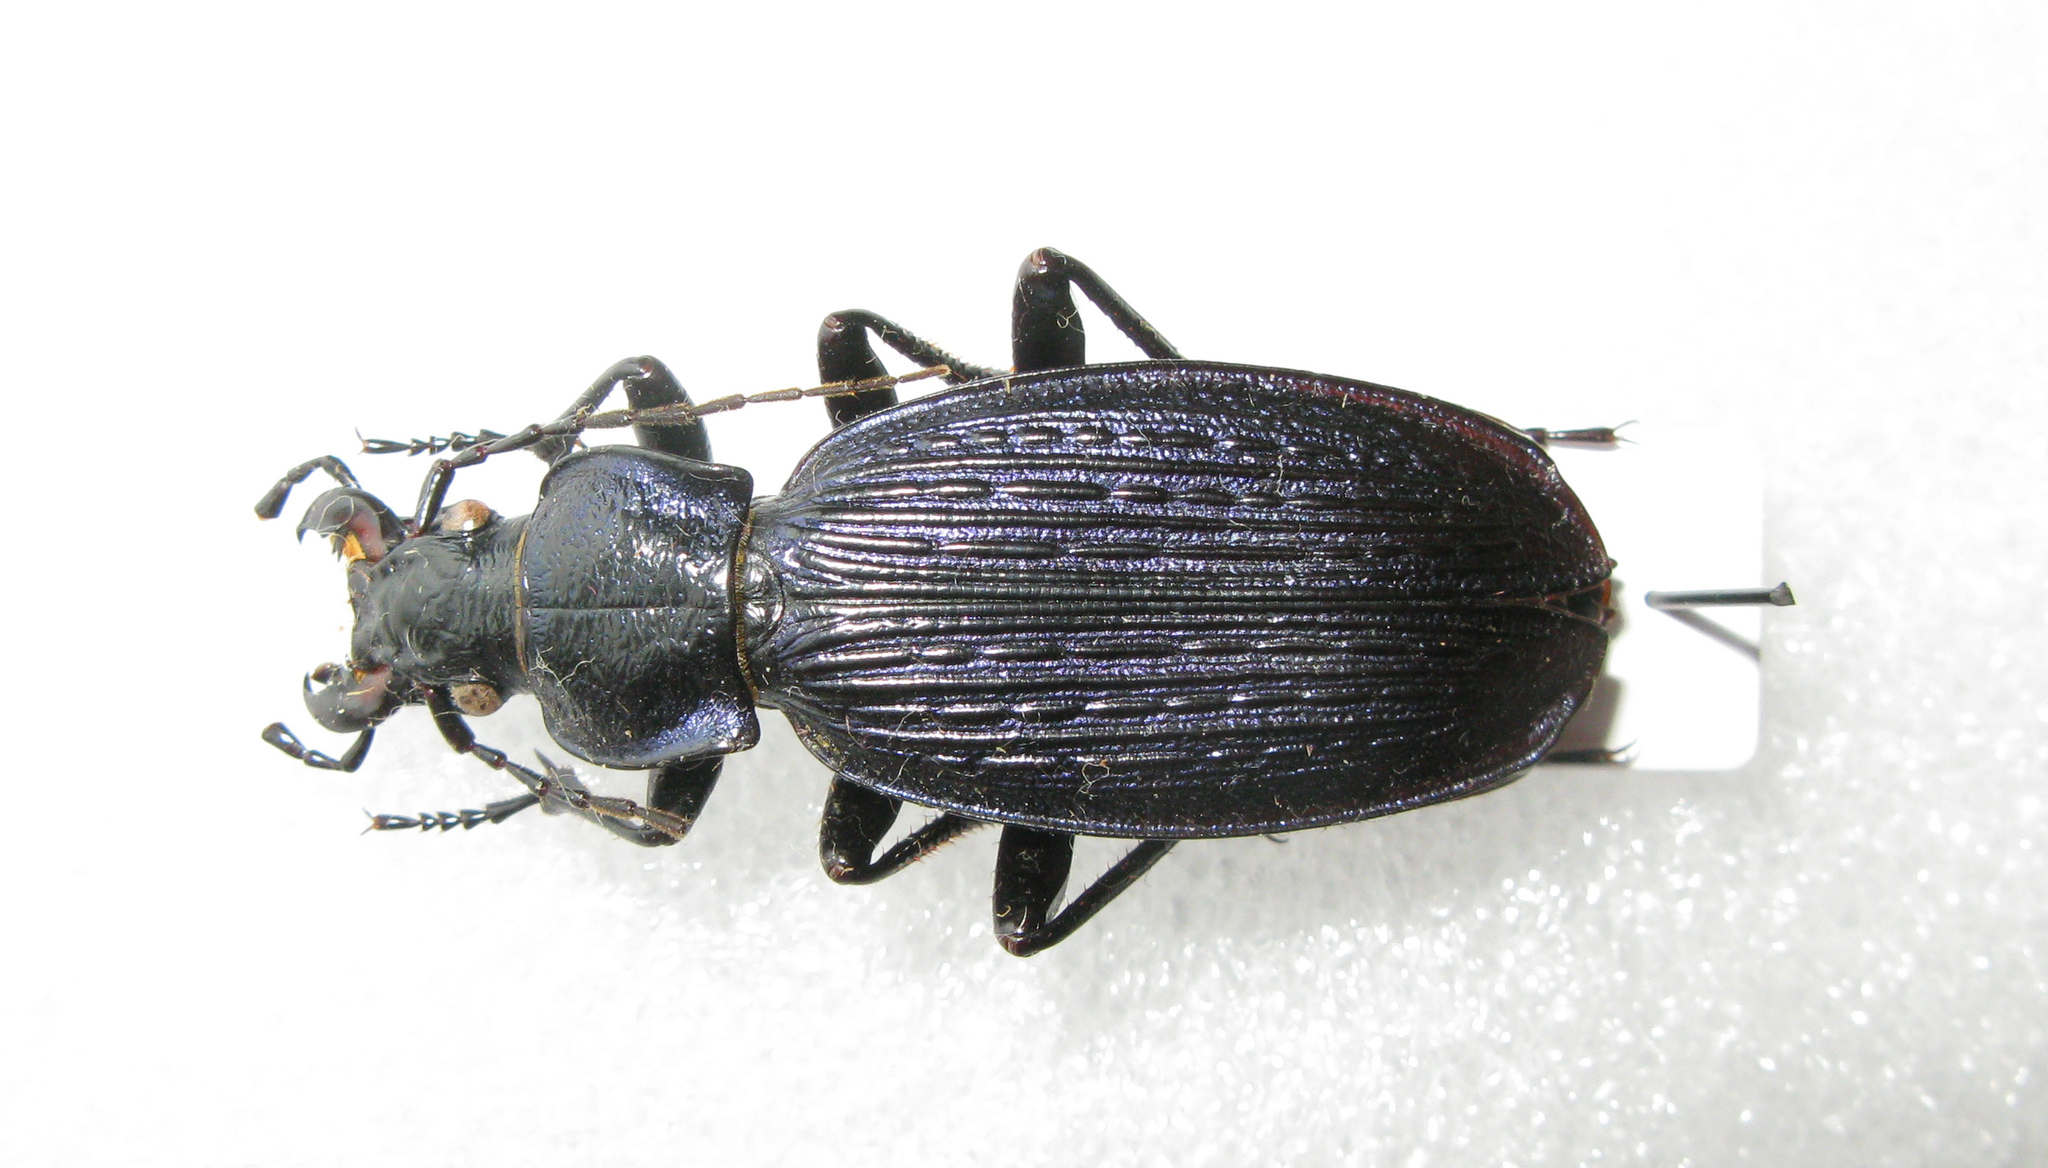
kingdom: Animalia
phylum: Arthropoda
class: Insecta
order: Coleoptera
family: Carabidae
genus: Carabus
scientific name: Carabus prometheus
